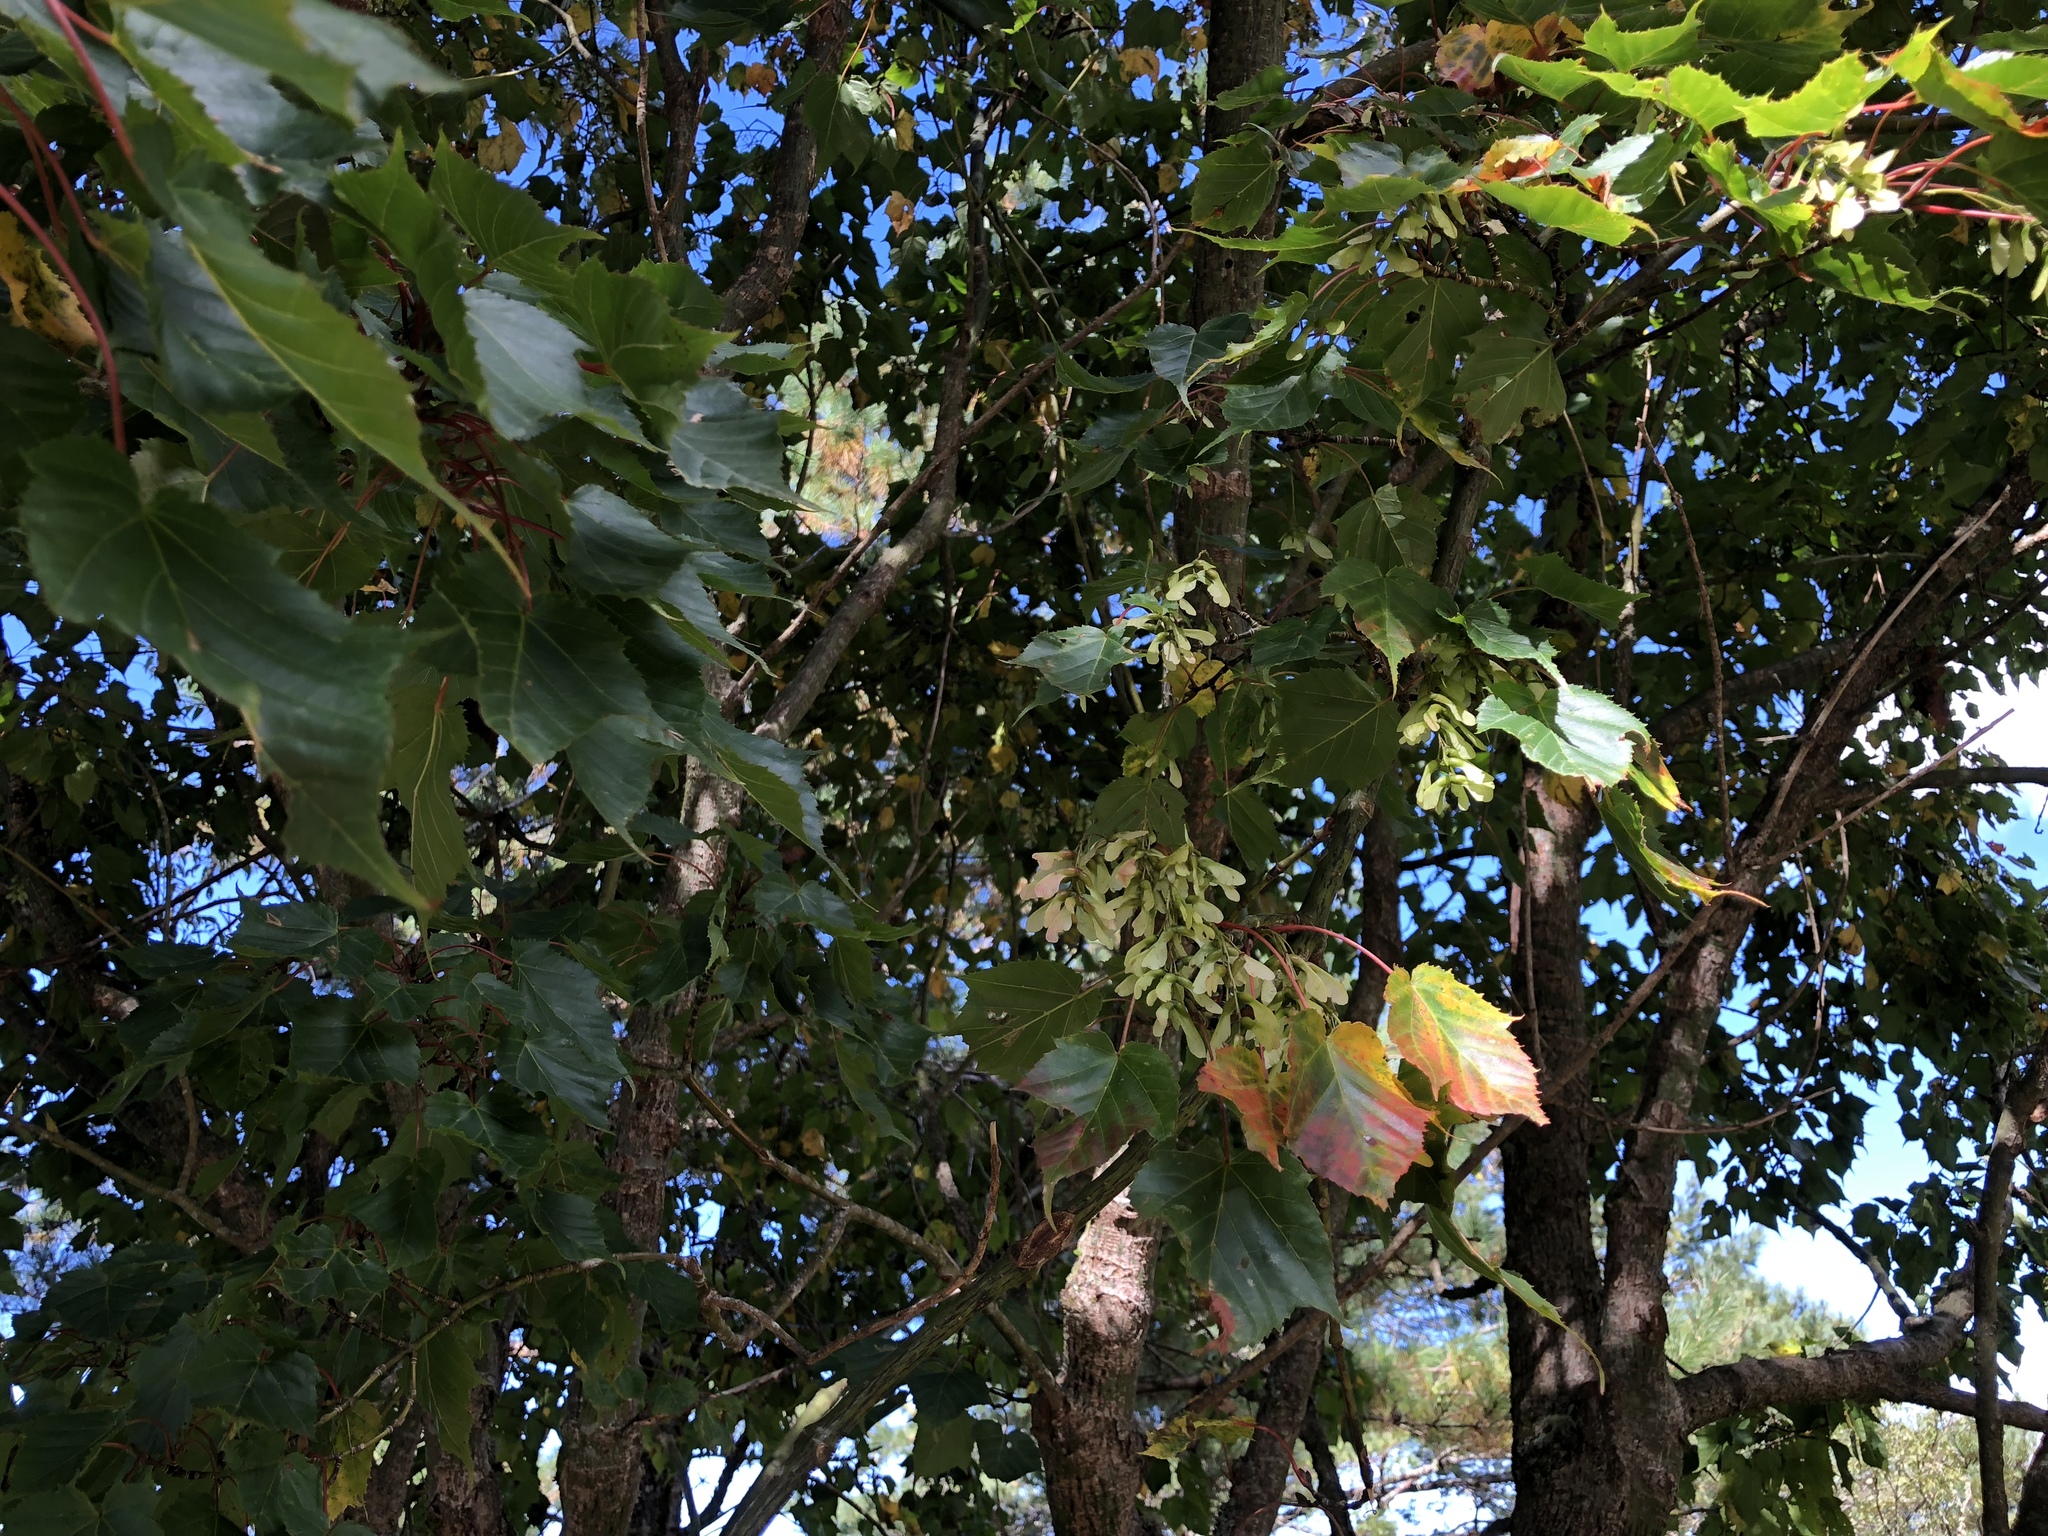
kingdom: Plantae
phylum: Tracheophyta
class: Magnoliopsida
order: Sapindales
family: Sapindaceae
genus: Acer
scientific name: Acer caudatifolium
